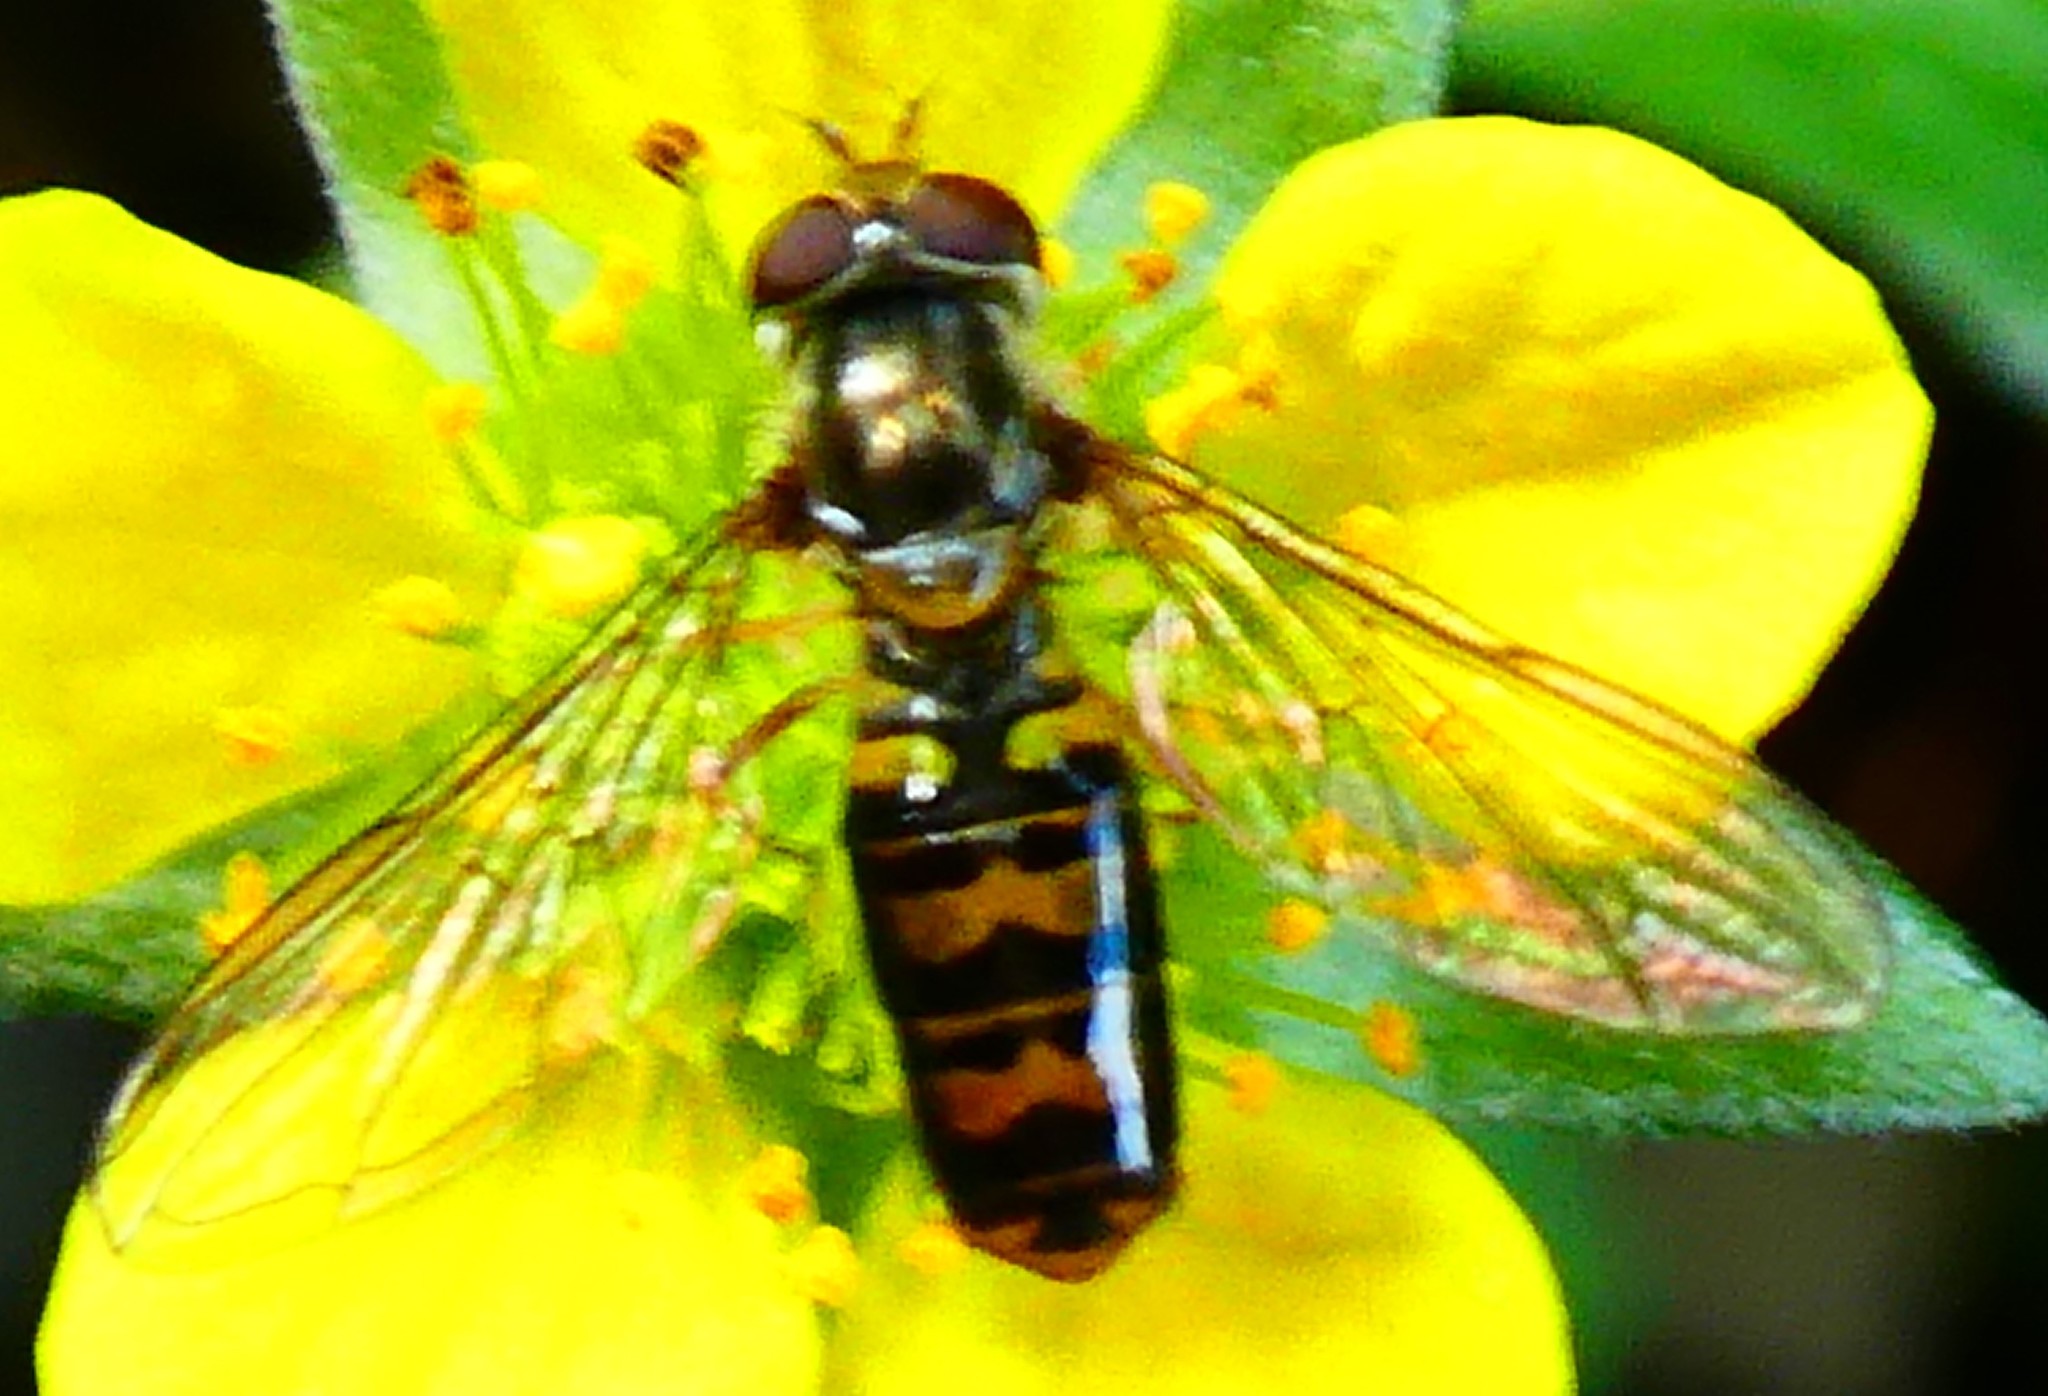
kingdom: Animalia
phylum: Arthropoda
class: Insecta
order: Diptera
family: Syrphidae
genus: Episyrphus
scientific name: Episyrphus balteatus
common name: Marmalade hoverfly
